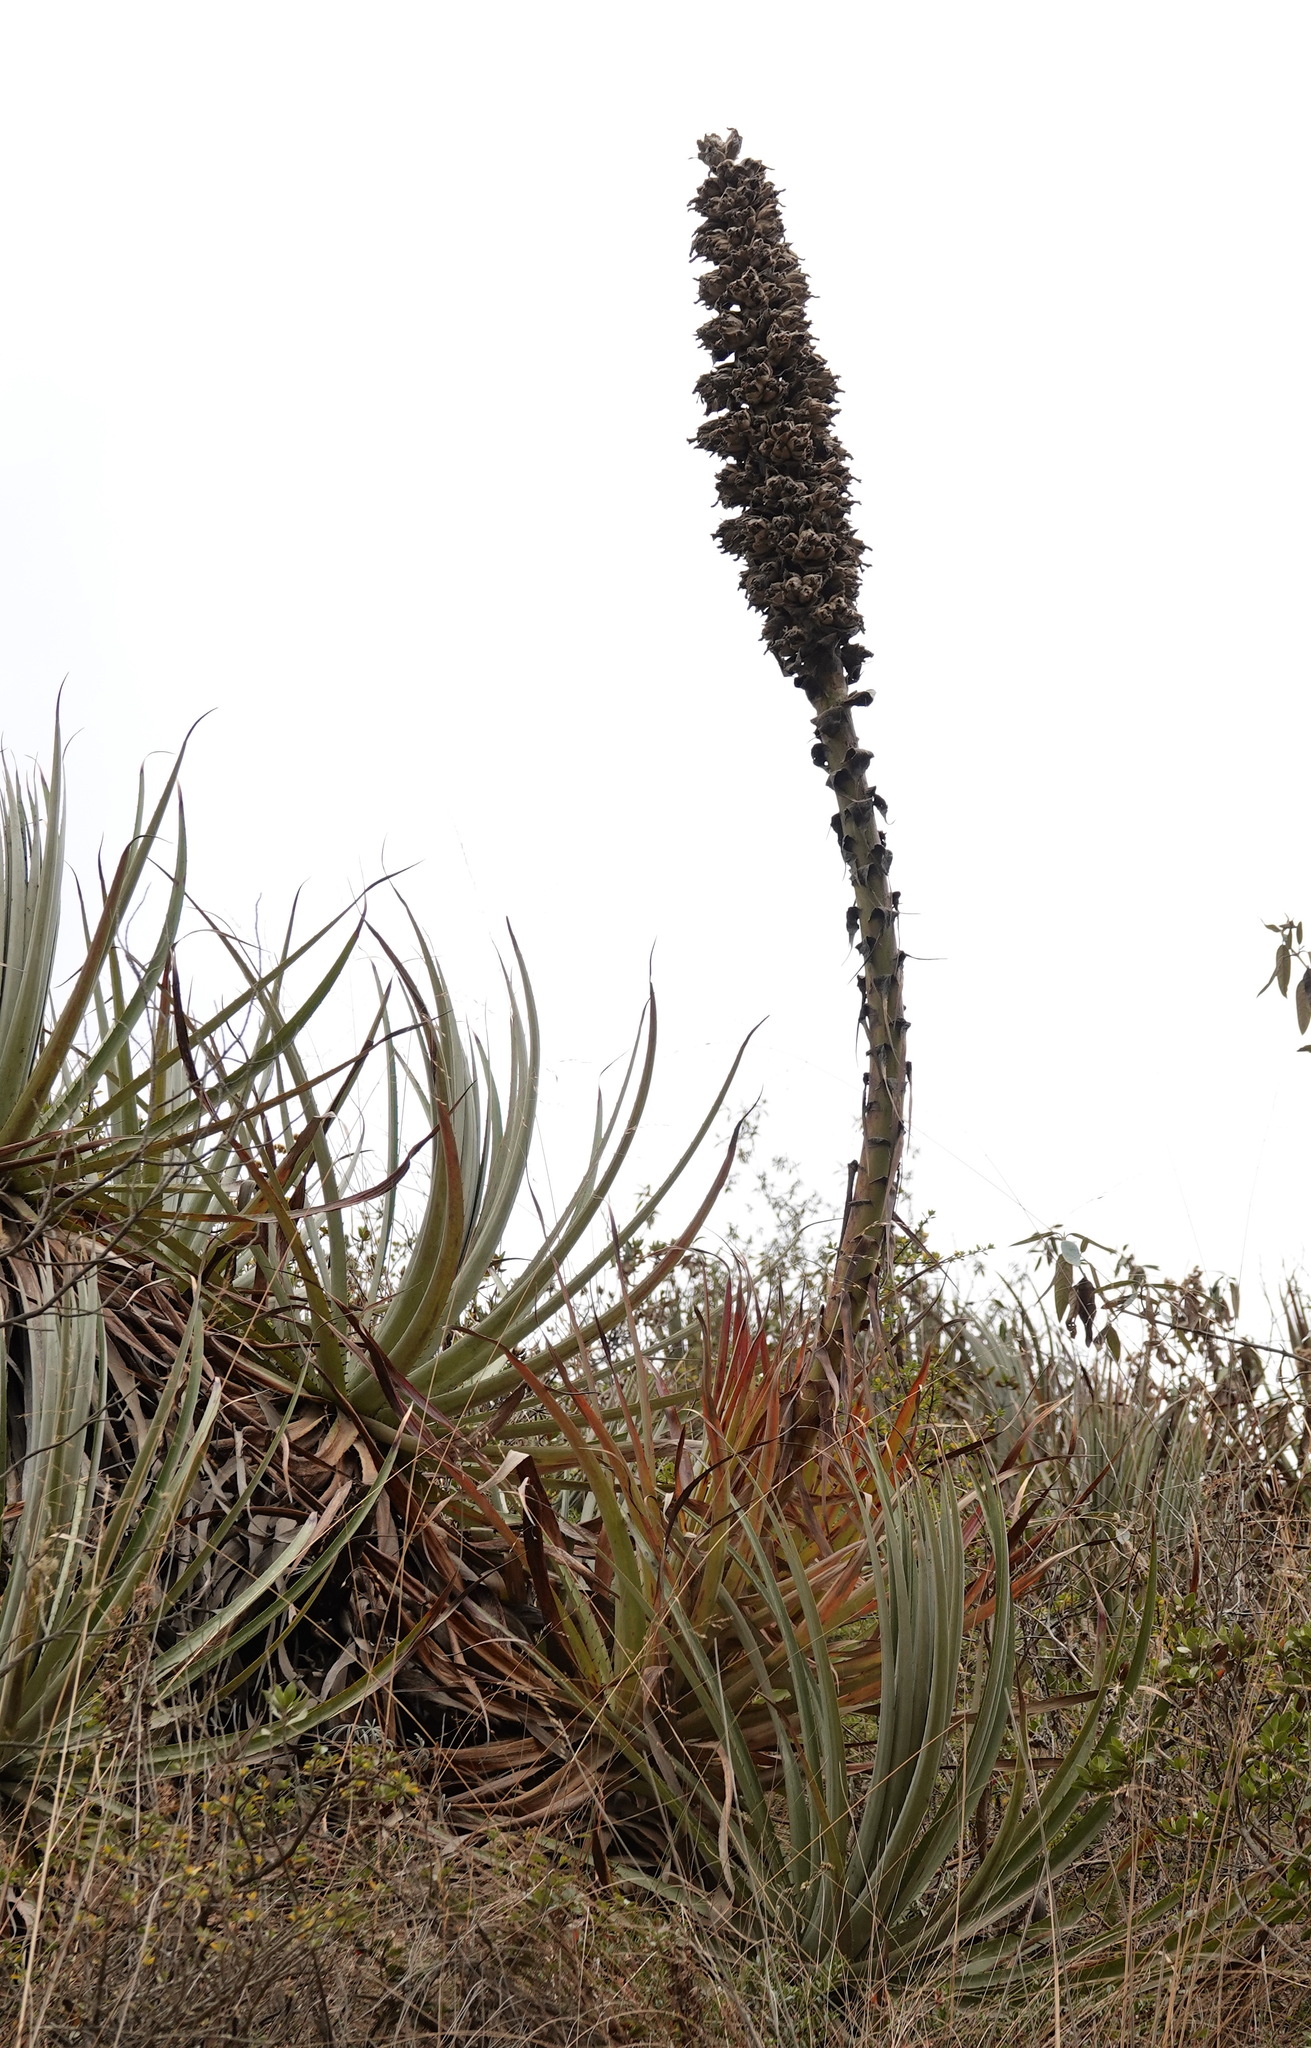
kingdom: Plantae
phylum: Tracheophyta
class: Liliopsida
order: Poales
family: Bromeliaceae
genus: Puya
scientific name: Puya weberbaueri
